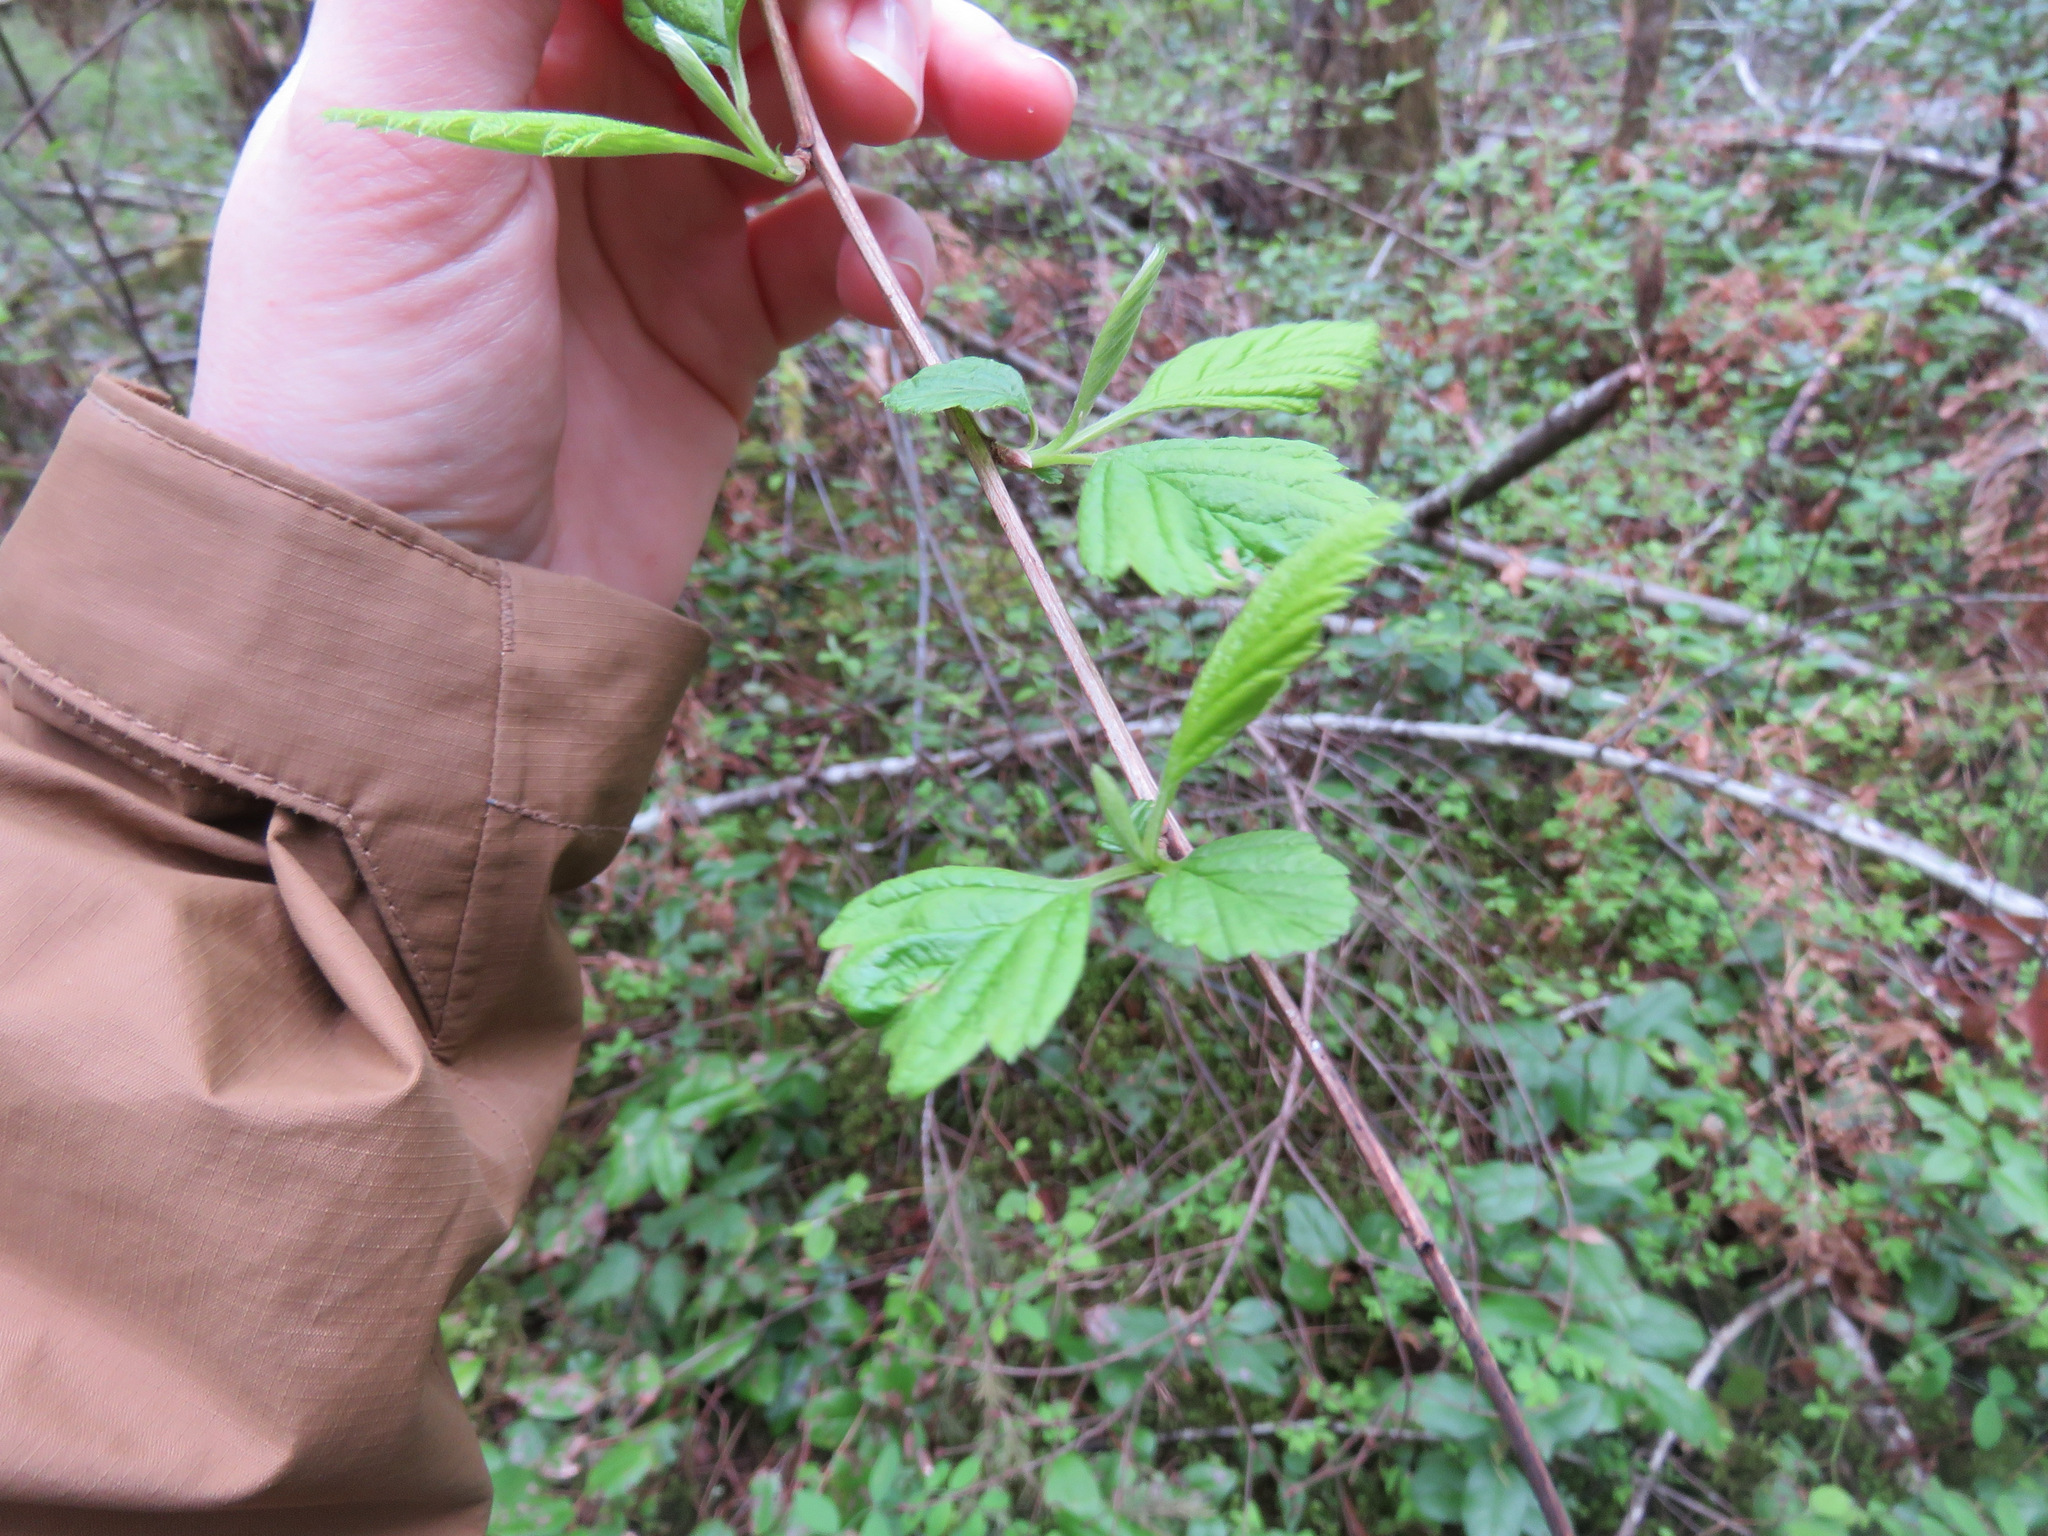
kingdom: Plantae
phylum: Tracheophyta
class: Magnoliopsida
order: Rosales
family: Rosaceae
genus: Holodiscus
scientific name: Holodiscus discolor
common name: Oceanspray
